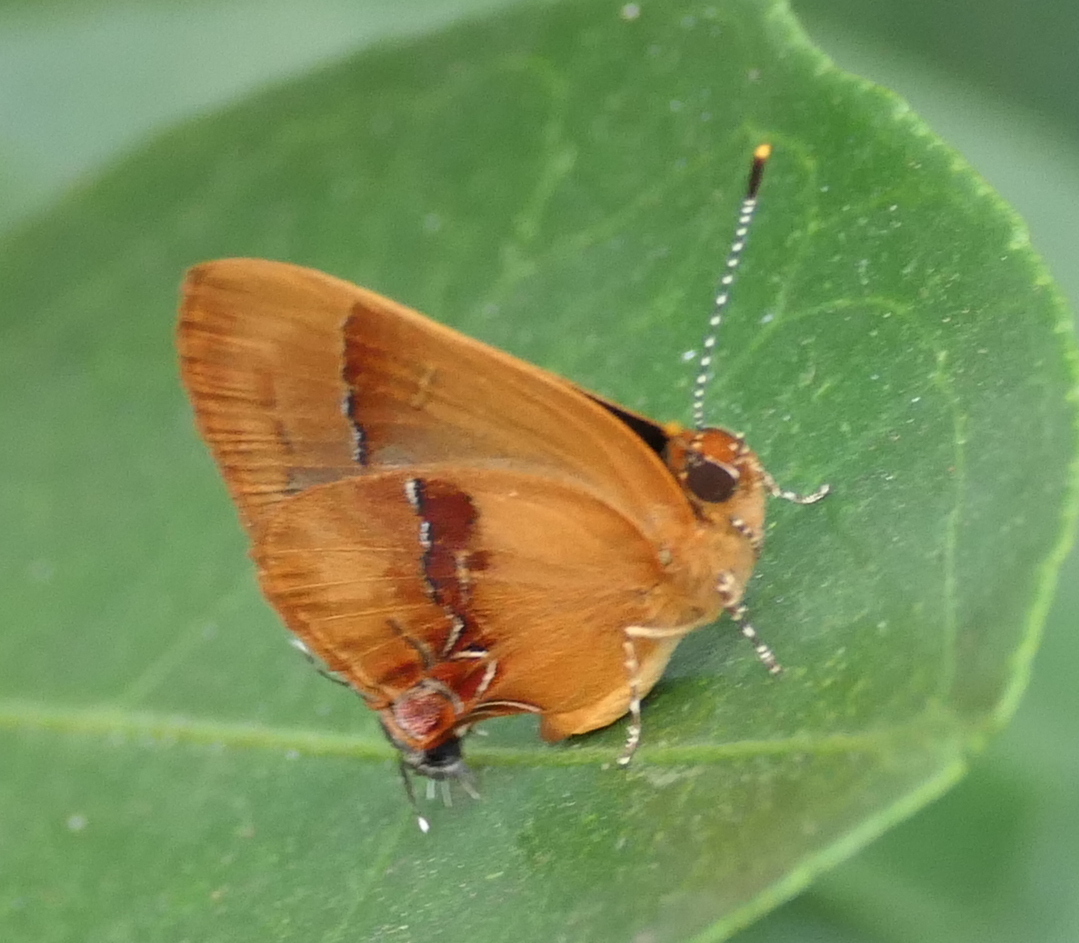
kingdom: Animalia
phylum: Arthropoda
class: Insecta
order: Lepidoptera
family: Lycaenidae
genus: Thecla
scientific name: Thecla demonassa
